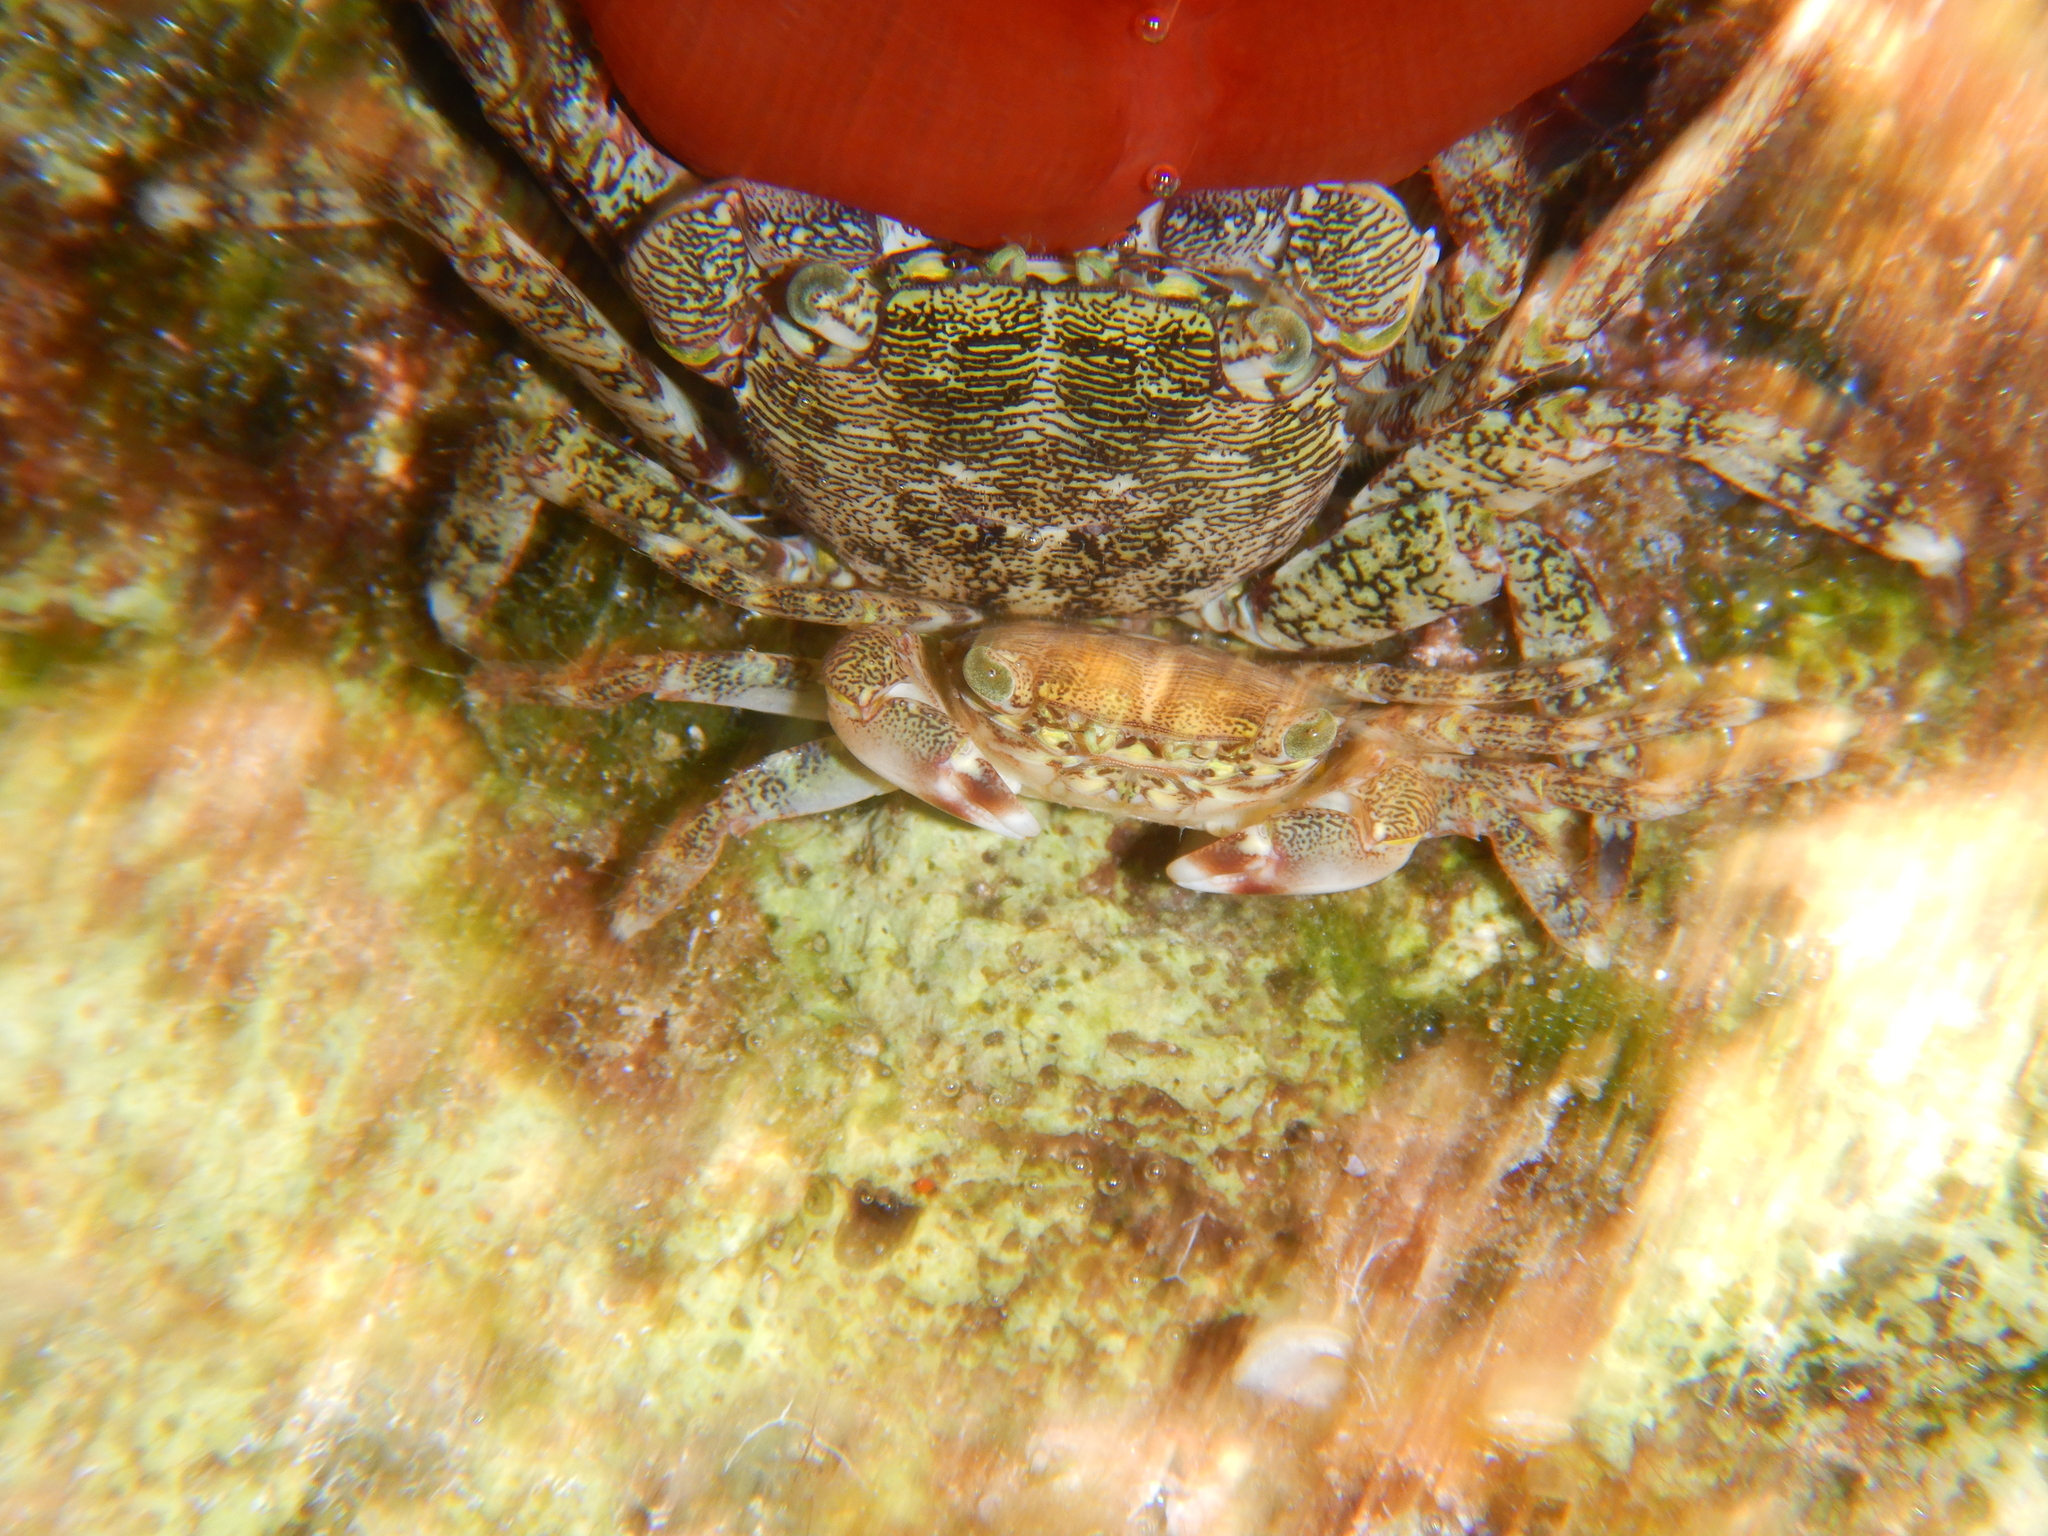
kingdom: Animalia
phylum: Arthropoda
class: Malacostraca
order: Decapoda
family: Grapsidae
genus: Pachygrapsus
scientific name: Pachygrapsus marmoratus
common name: Marbled rock crab
